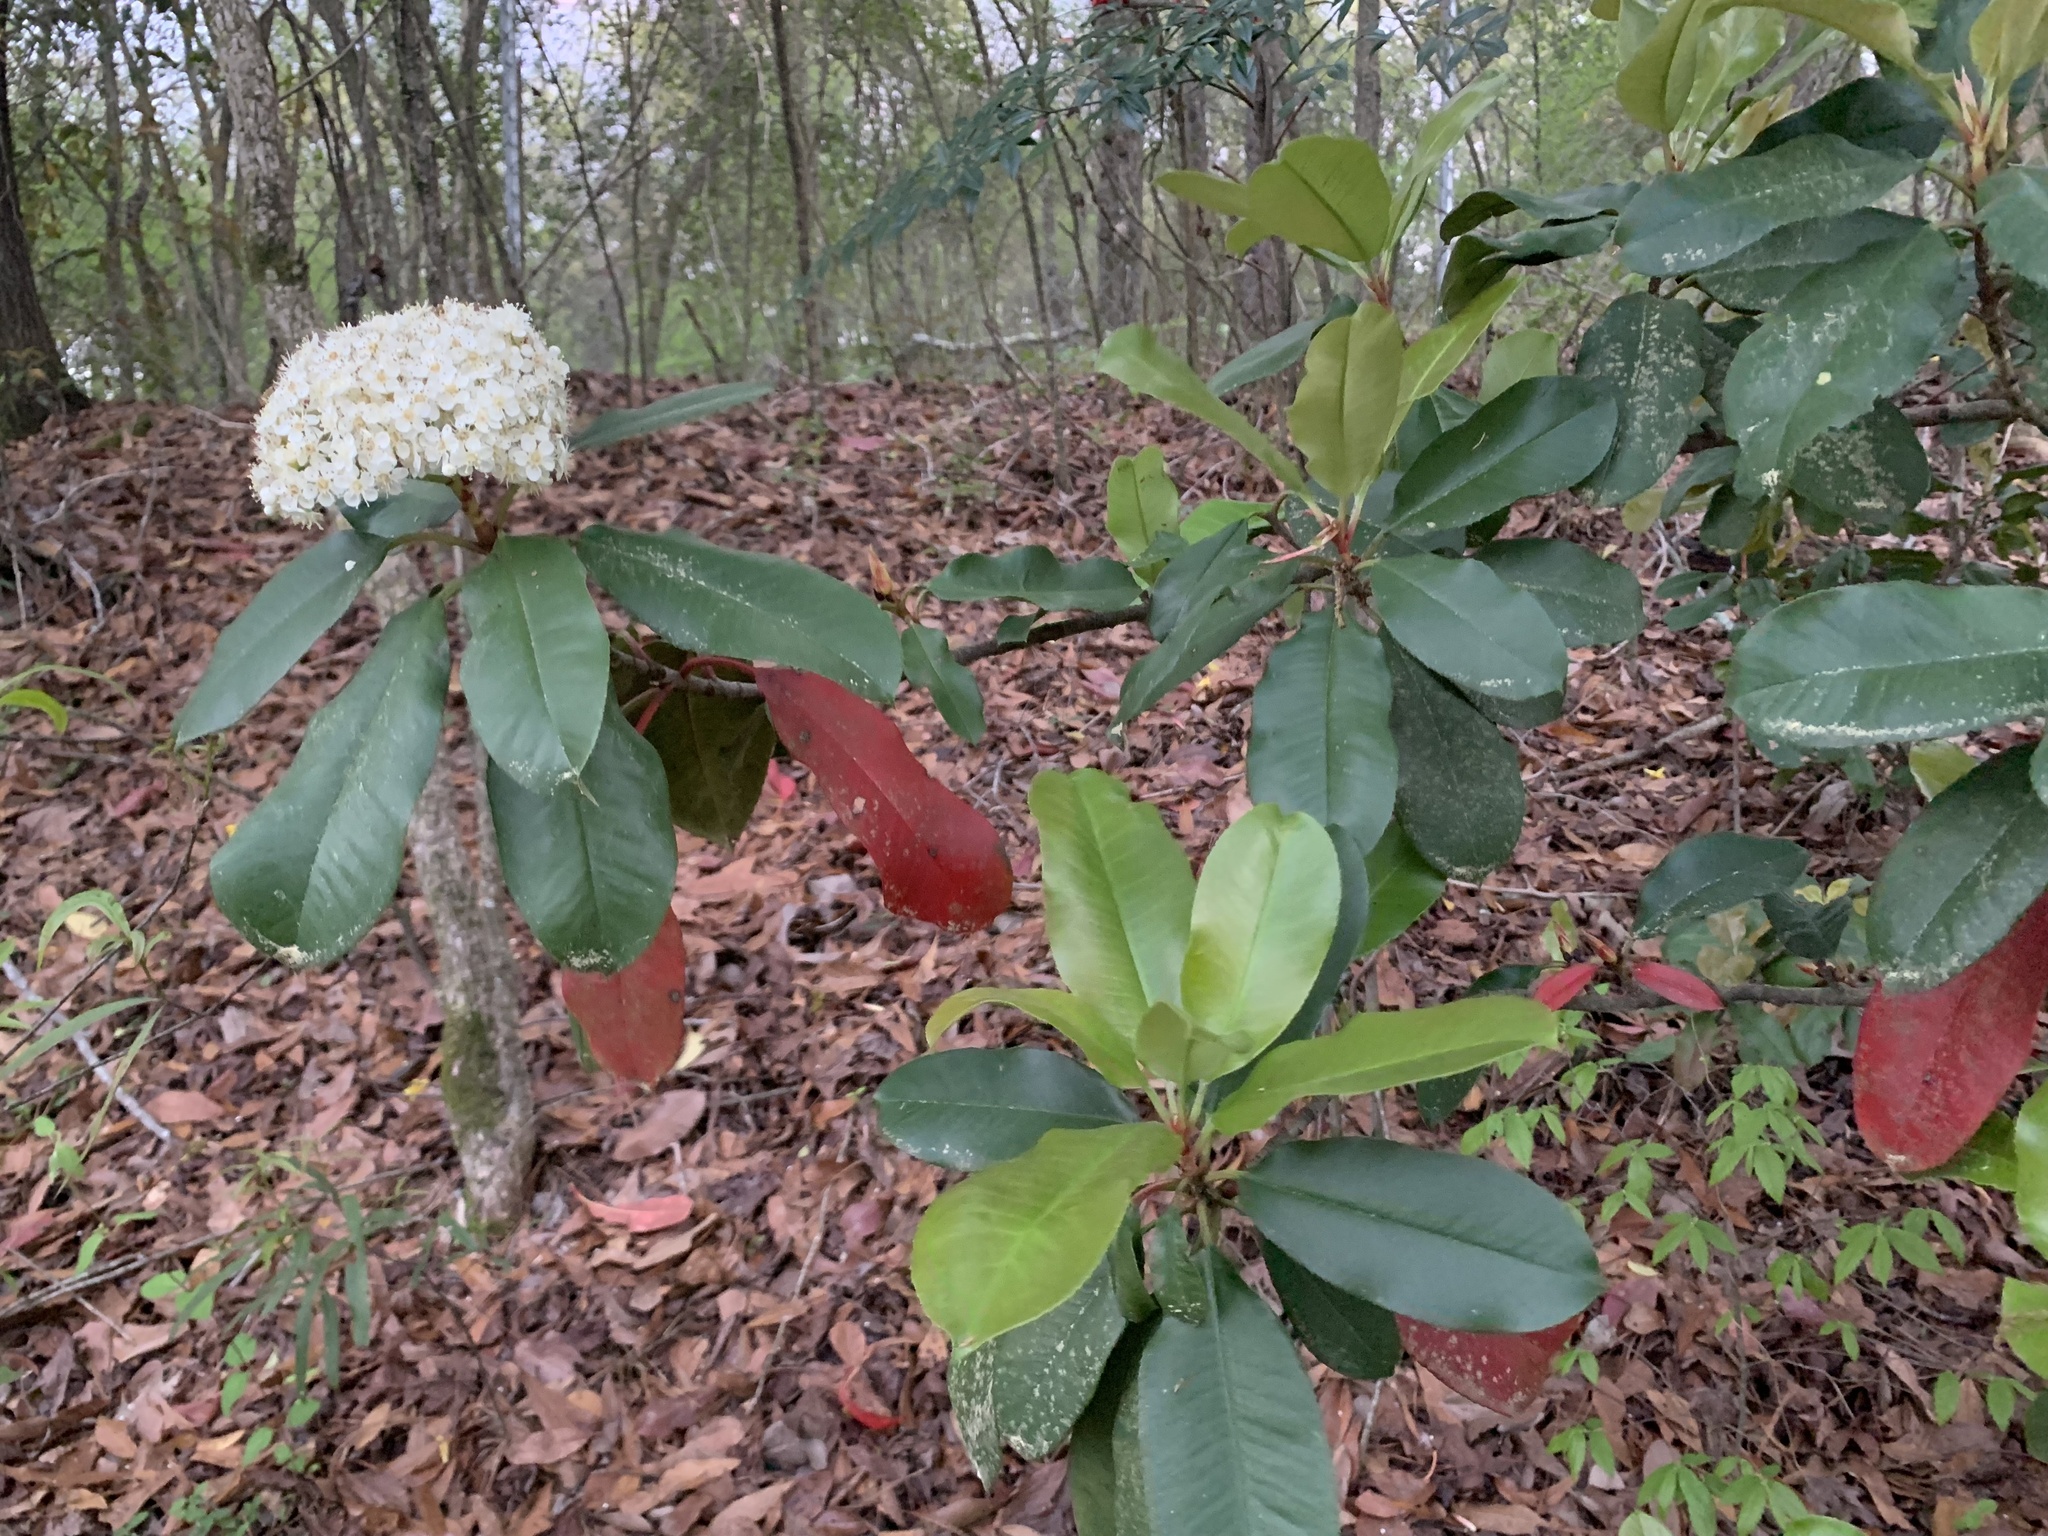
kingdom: Plantae
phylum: Tracheophyta
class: Magnoliopsida
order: Rosales
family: Rosaceae
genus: Photinia
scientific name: Photinia serratifolia
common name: Taiwanese photinia
